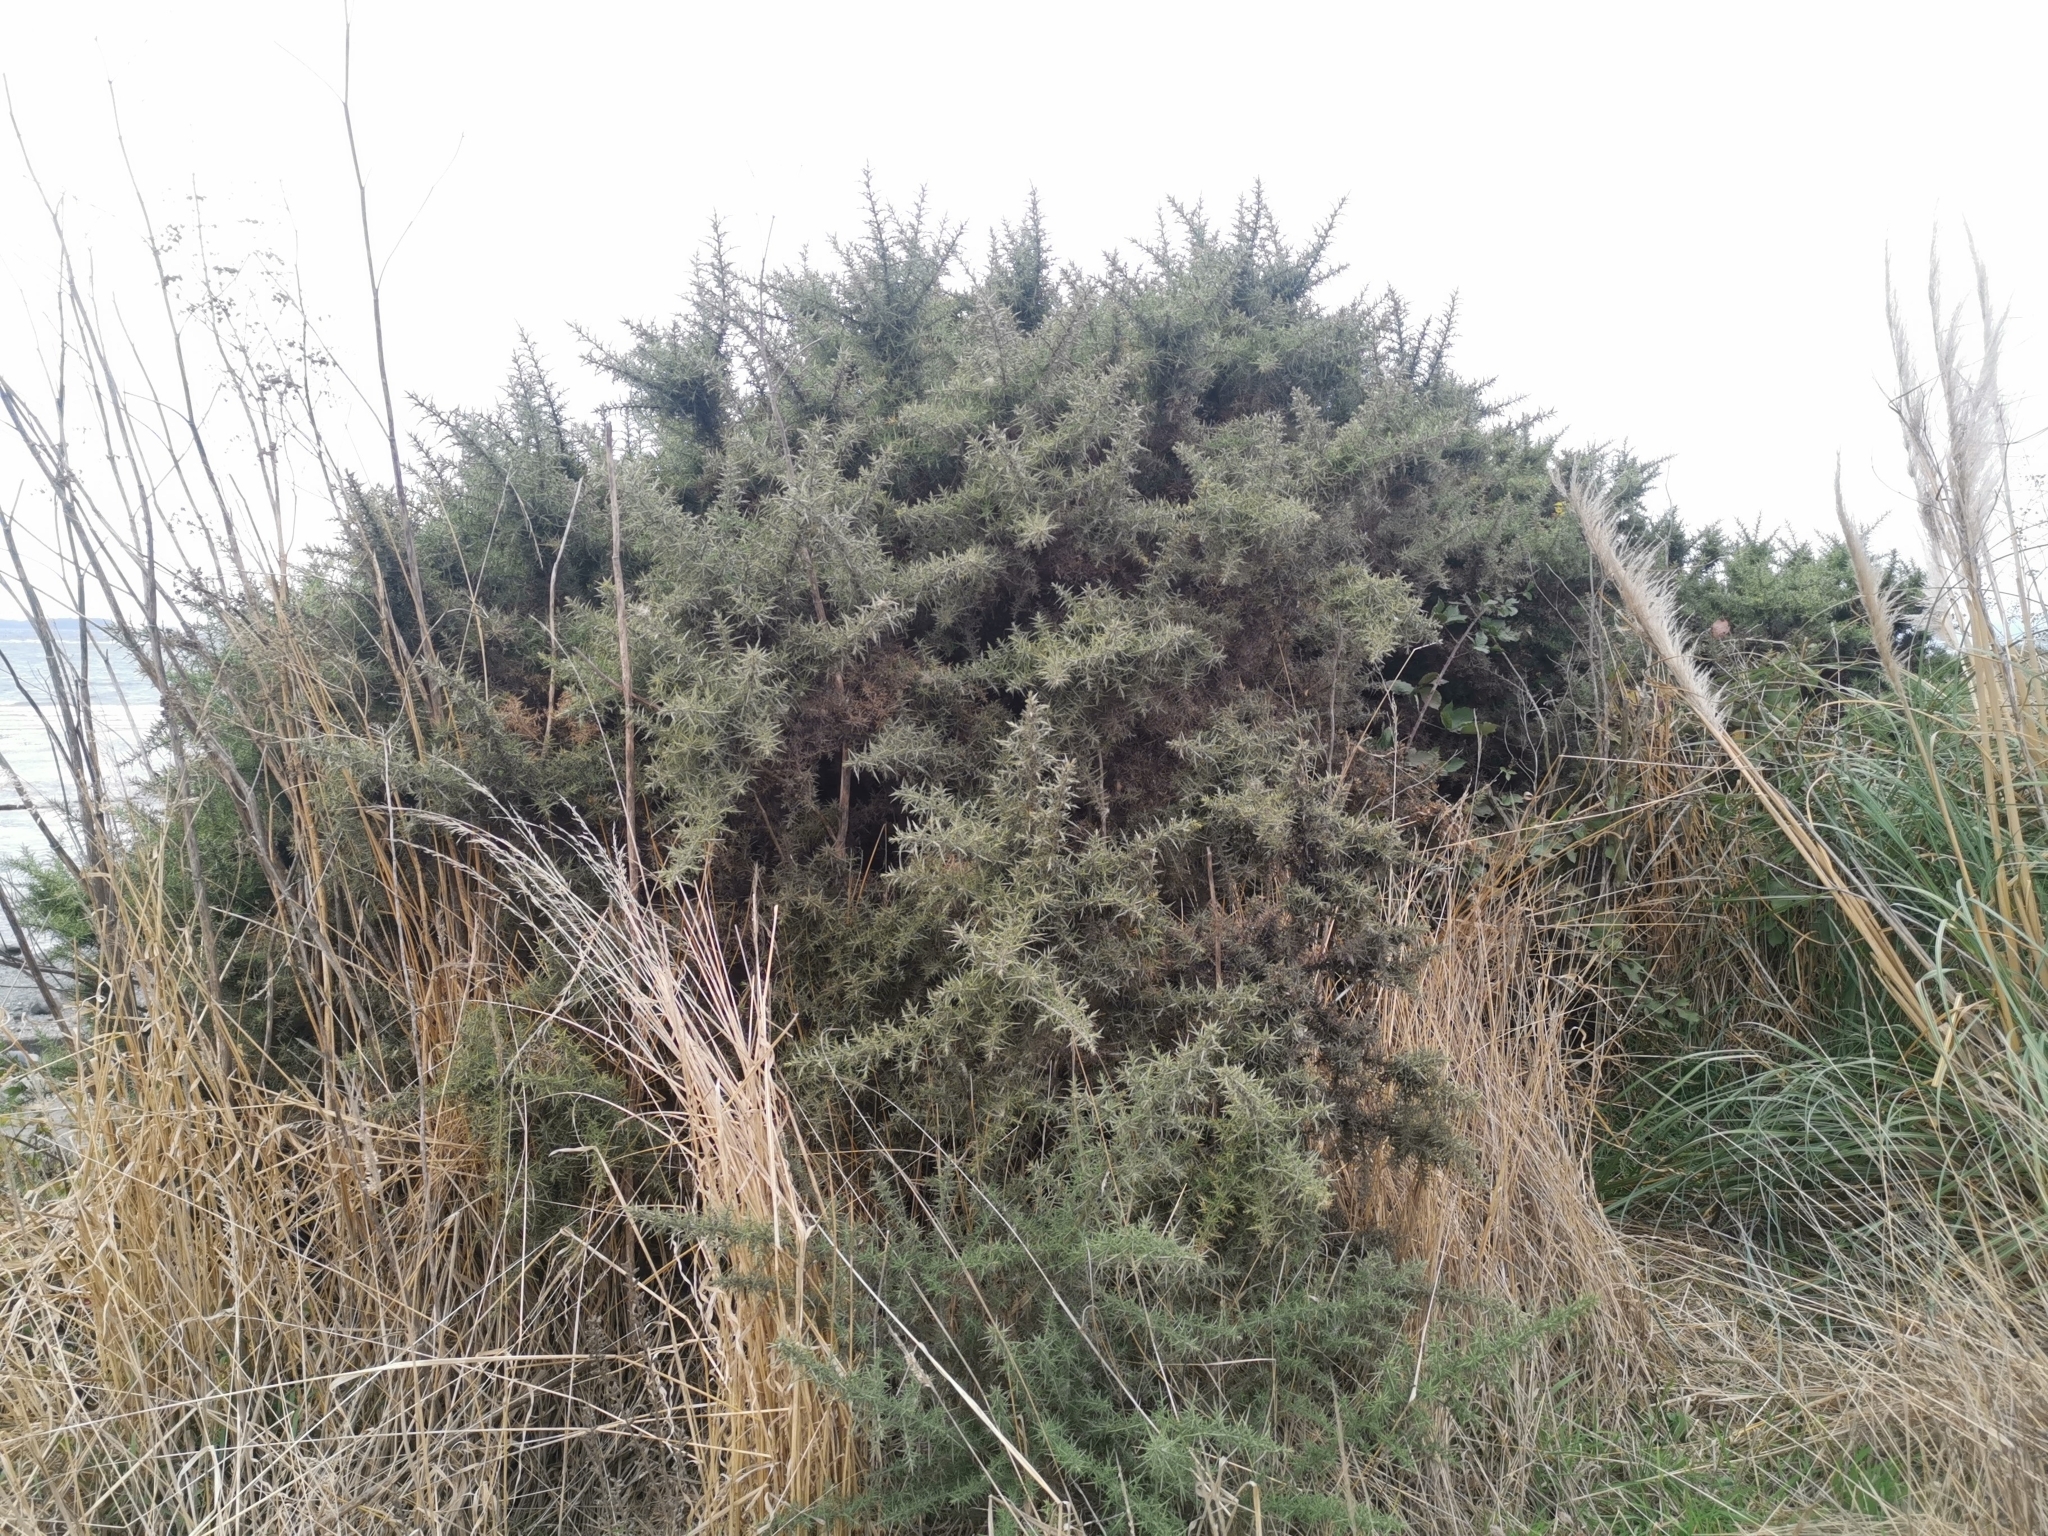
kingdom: Plantae
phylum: Tracheophyta
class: Magnoliopsida
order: Fabales
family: Fabaceae
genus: Ulex
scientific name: Ulex europaeus
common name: Common gorse
